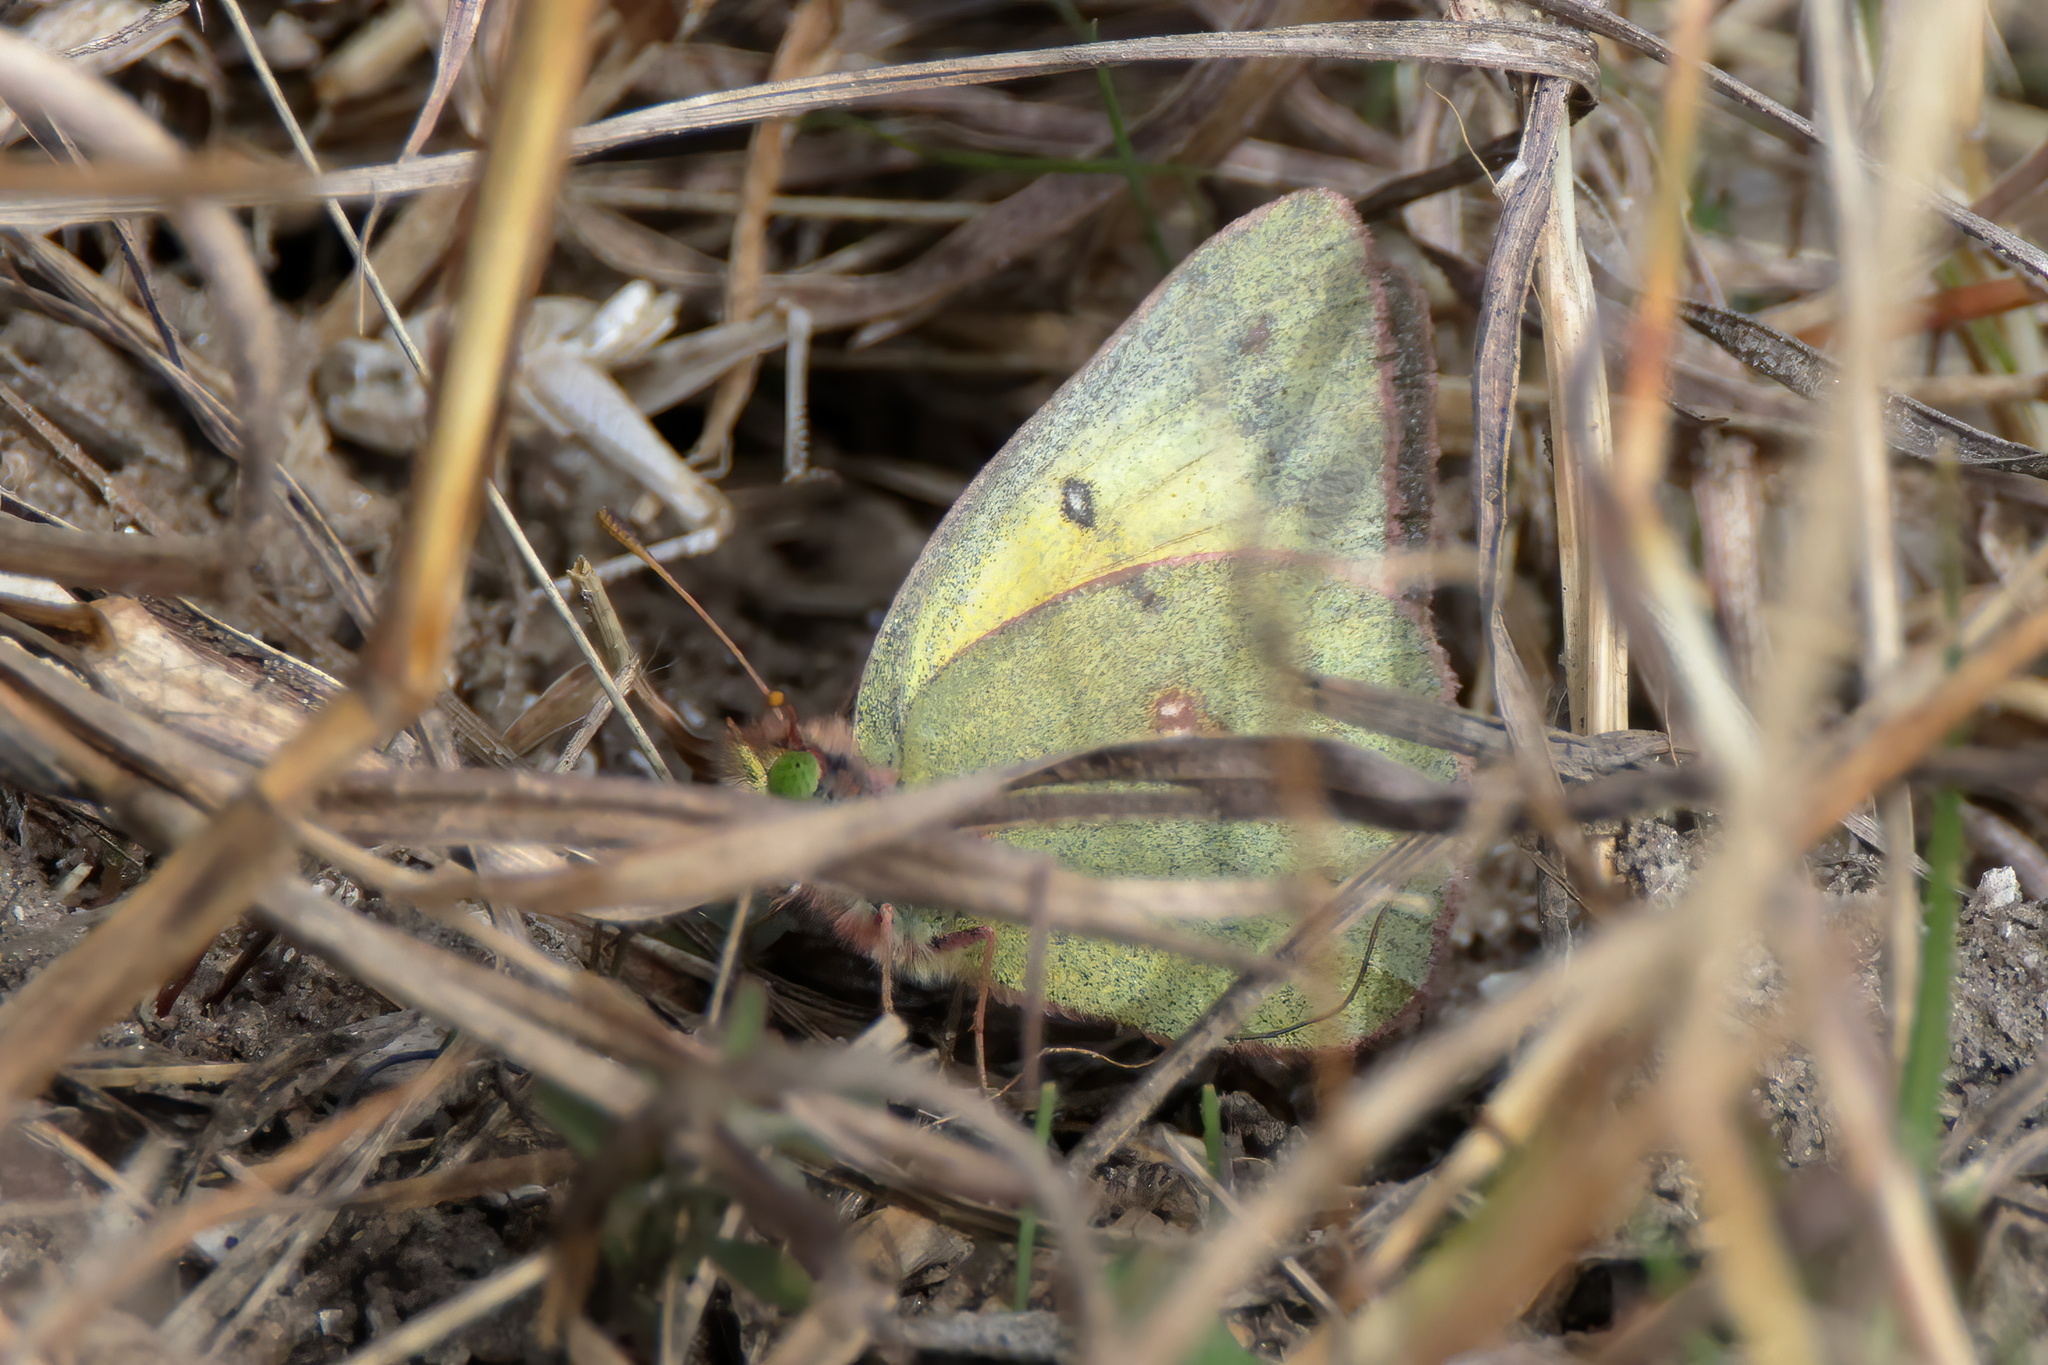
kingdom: Animalia
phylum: Arthropoda
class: Insecta
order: Lepidoptera
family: Pieridae
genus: Colias
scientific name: Colias eurytheme
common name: Alfalfa butterfly
